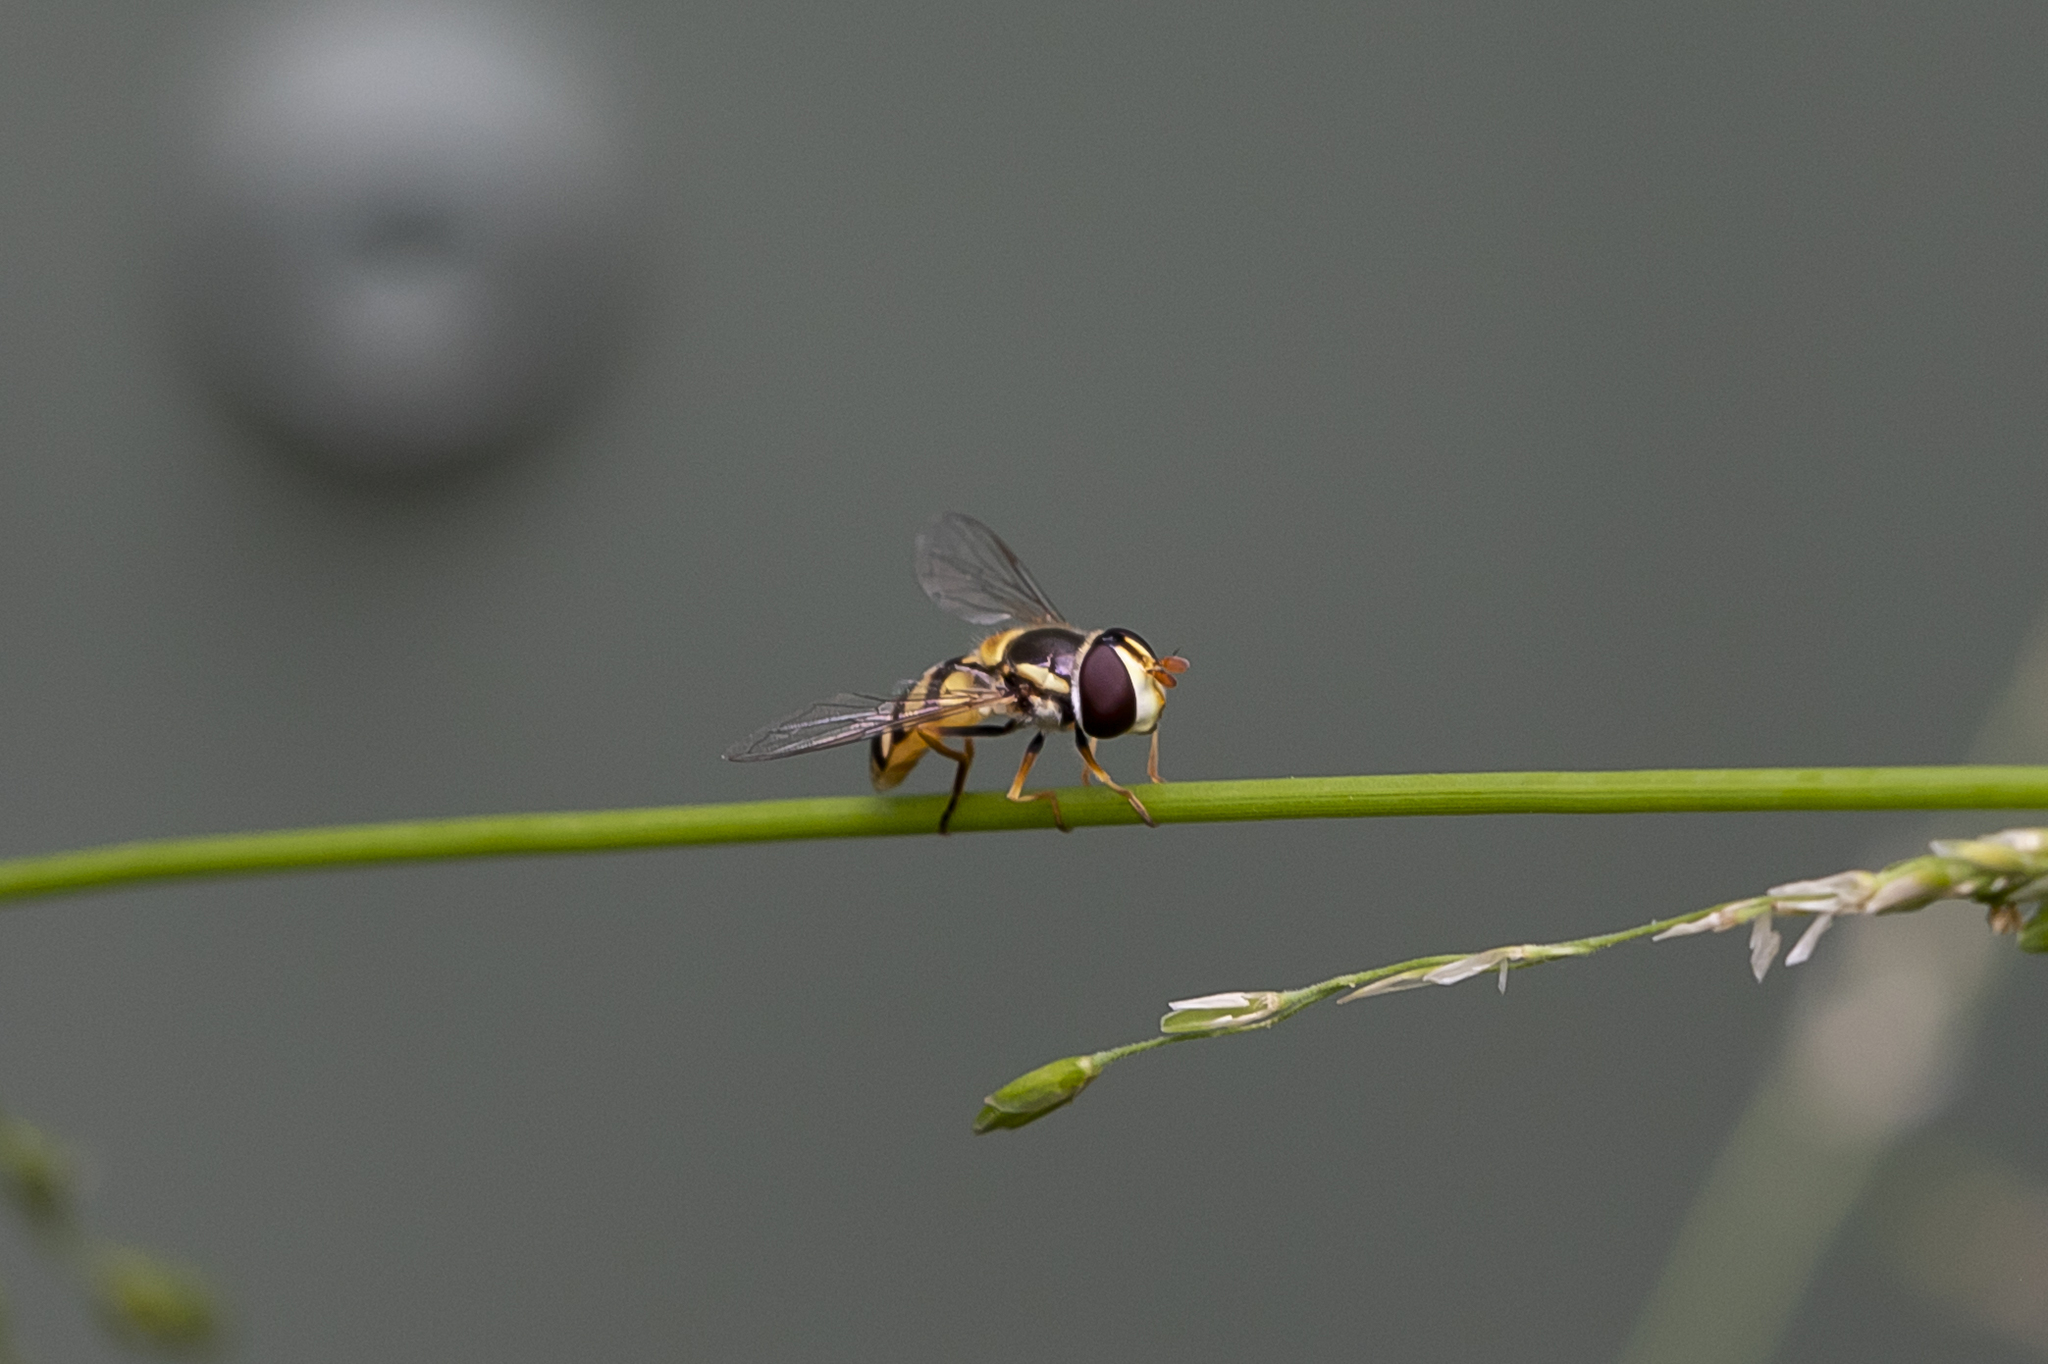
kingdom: Animalia
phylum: Arthropoda
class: Insecta
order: Diptera
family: Syrphidae
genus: Simosyrphus
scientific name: Simosyrphus grandicornis
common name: Hoverfly
